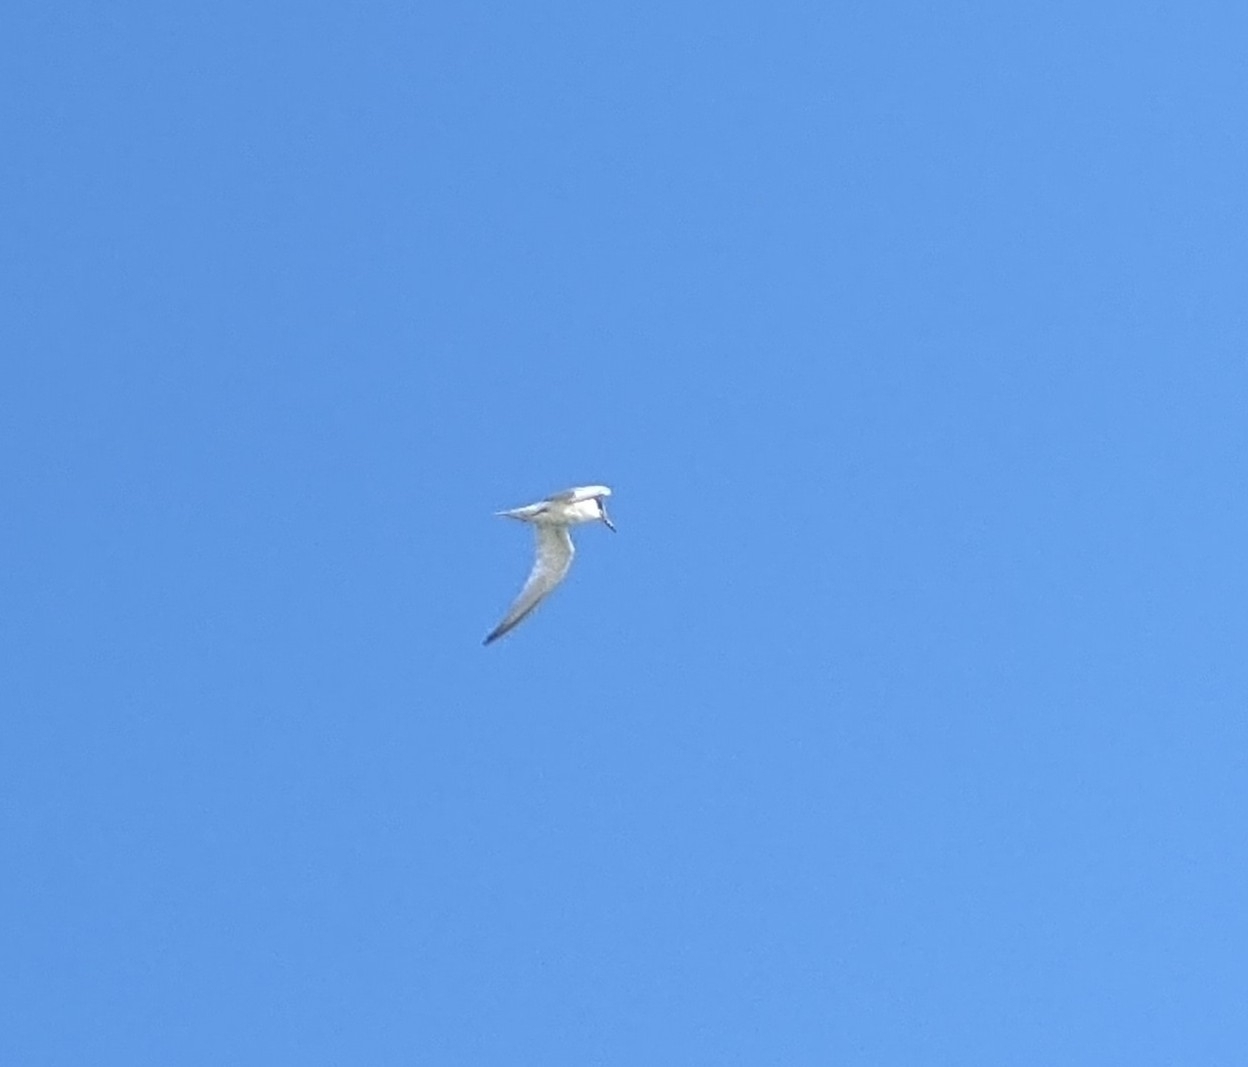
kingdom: Animalia
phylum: Chordata
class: Aves
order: Charadriiformes
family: Laridae
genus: Sternula
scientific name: Sternula antillarum
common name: Least tern
